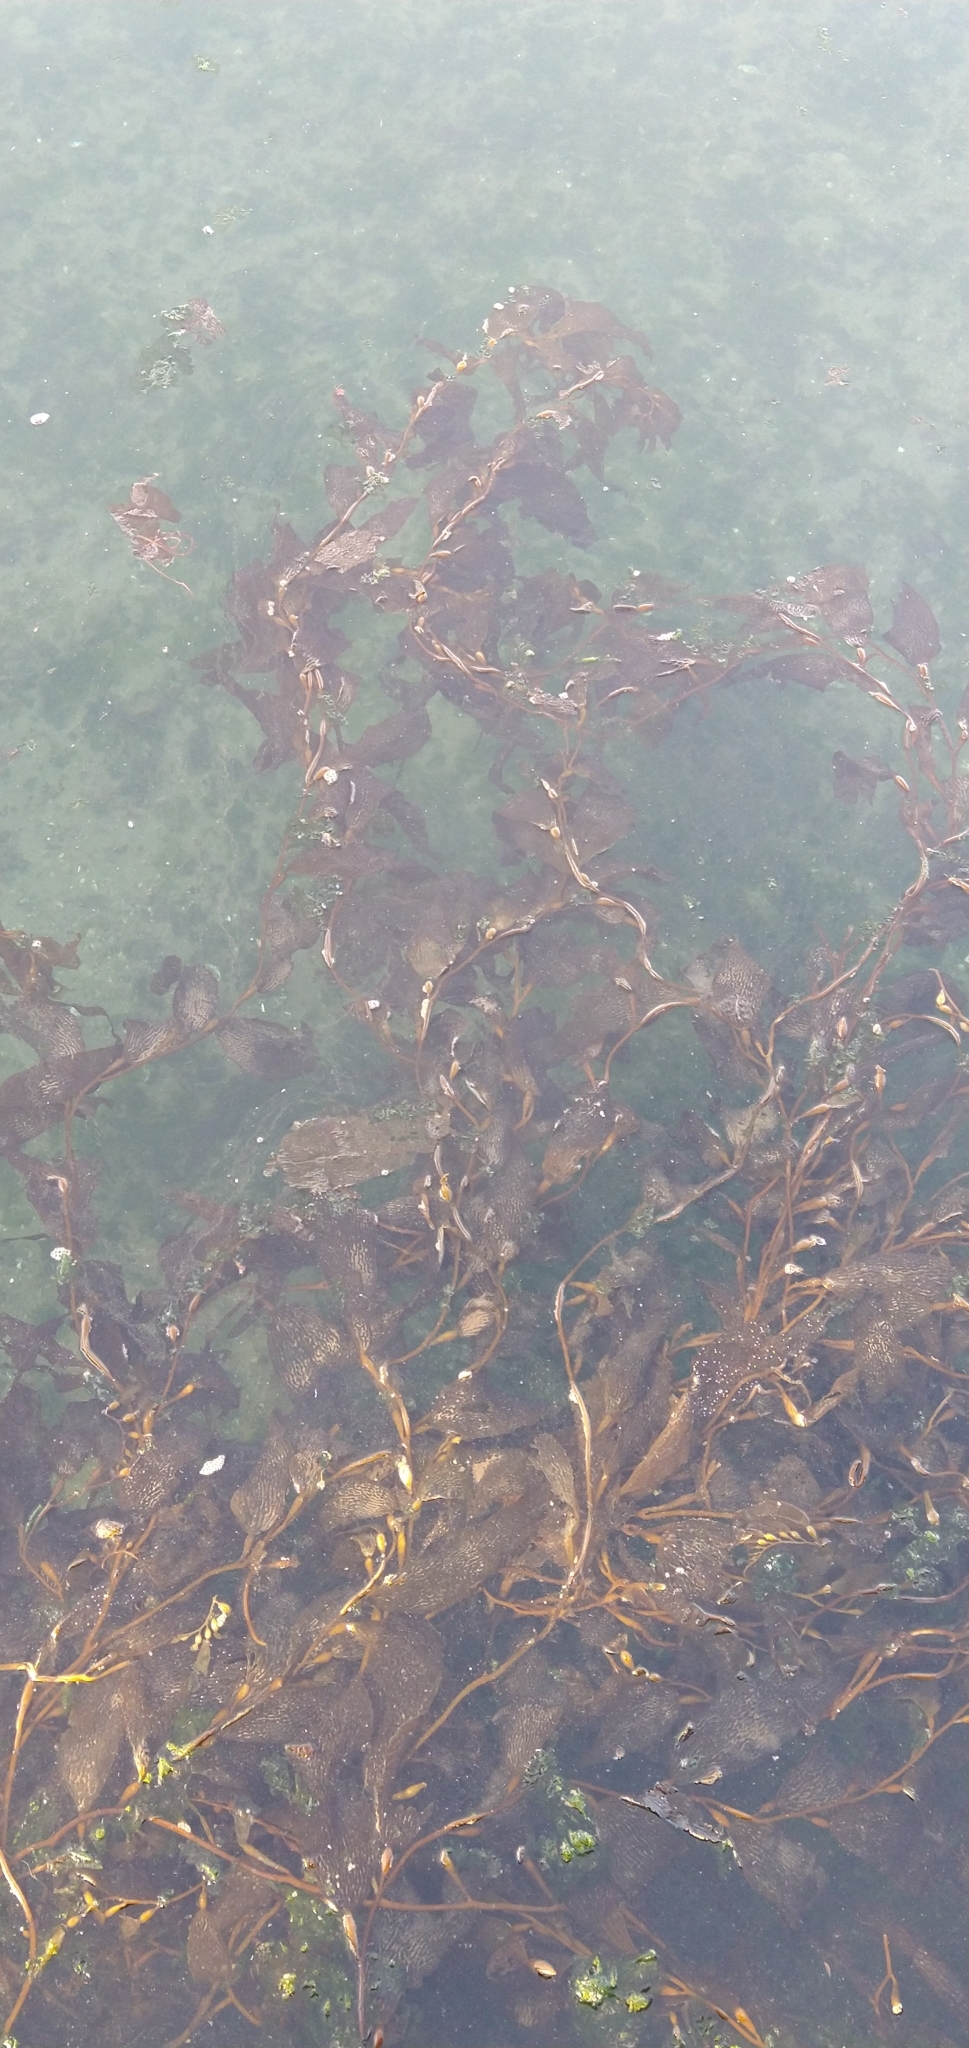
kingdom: Chromista
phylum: Ochrophyta
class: Phaeophyceae
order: Laminariales
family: Laminariaceae
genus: Macrocystis
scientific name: Macrocystis pyrifera
